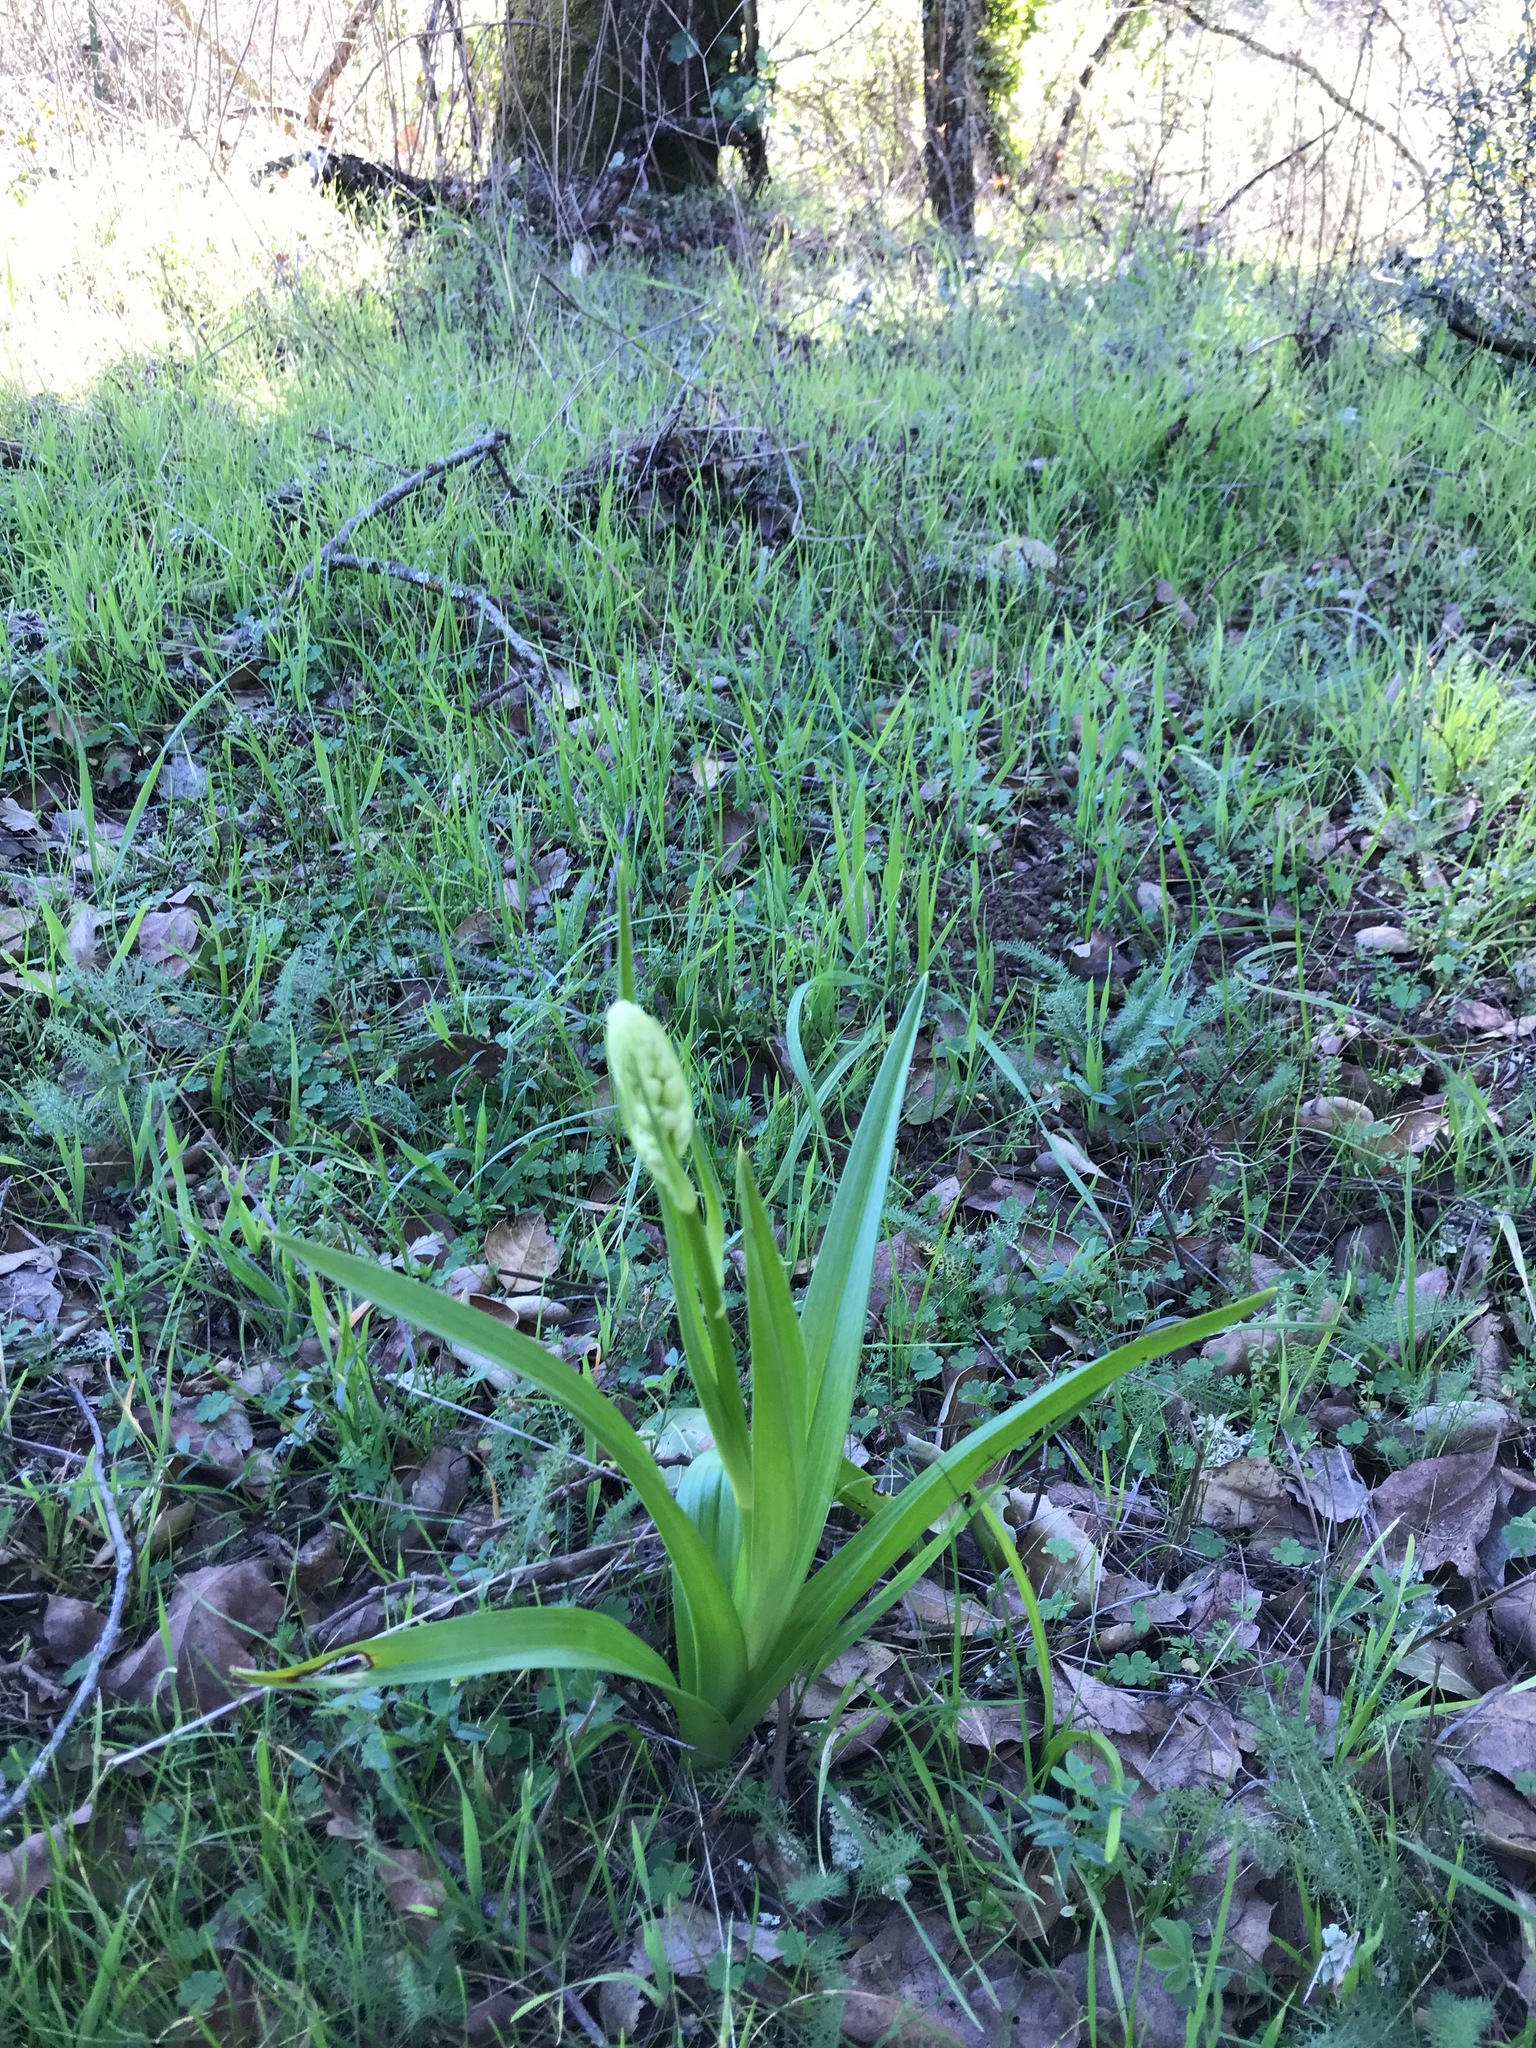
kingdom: Plantae
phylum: Tracheophyta
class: Liliopsida
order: Liliales
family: Melanthiaceae
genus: Toxicoscordion
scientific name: Toxicoscordion fremontii
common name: Fremont's death camas
